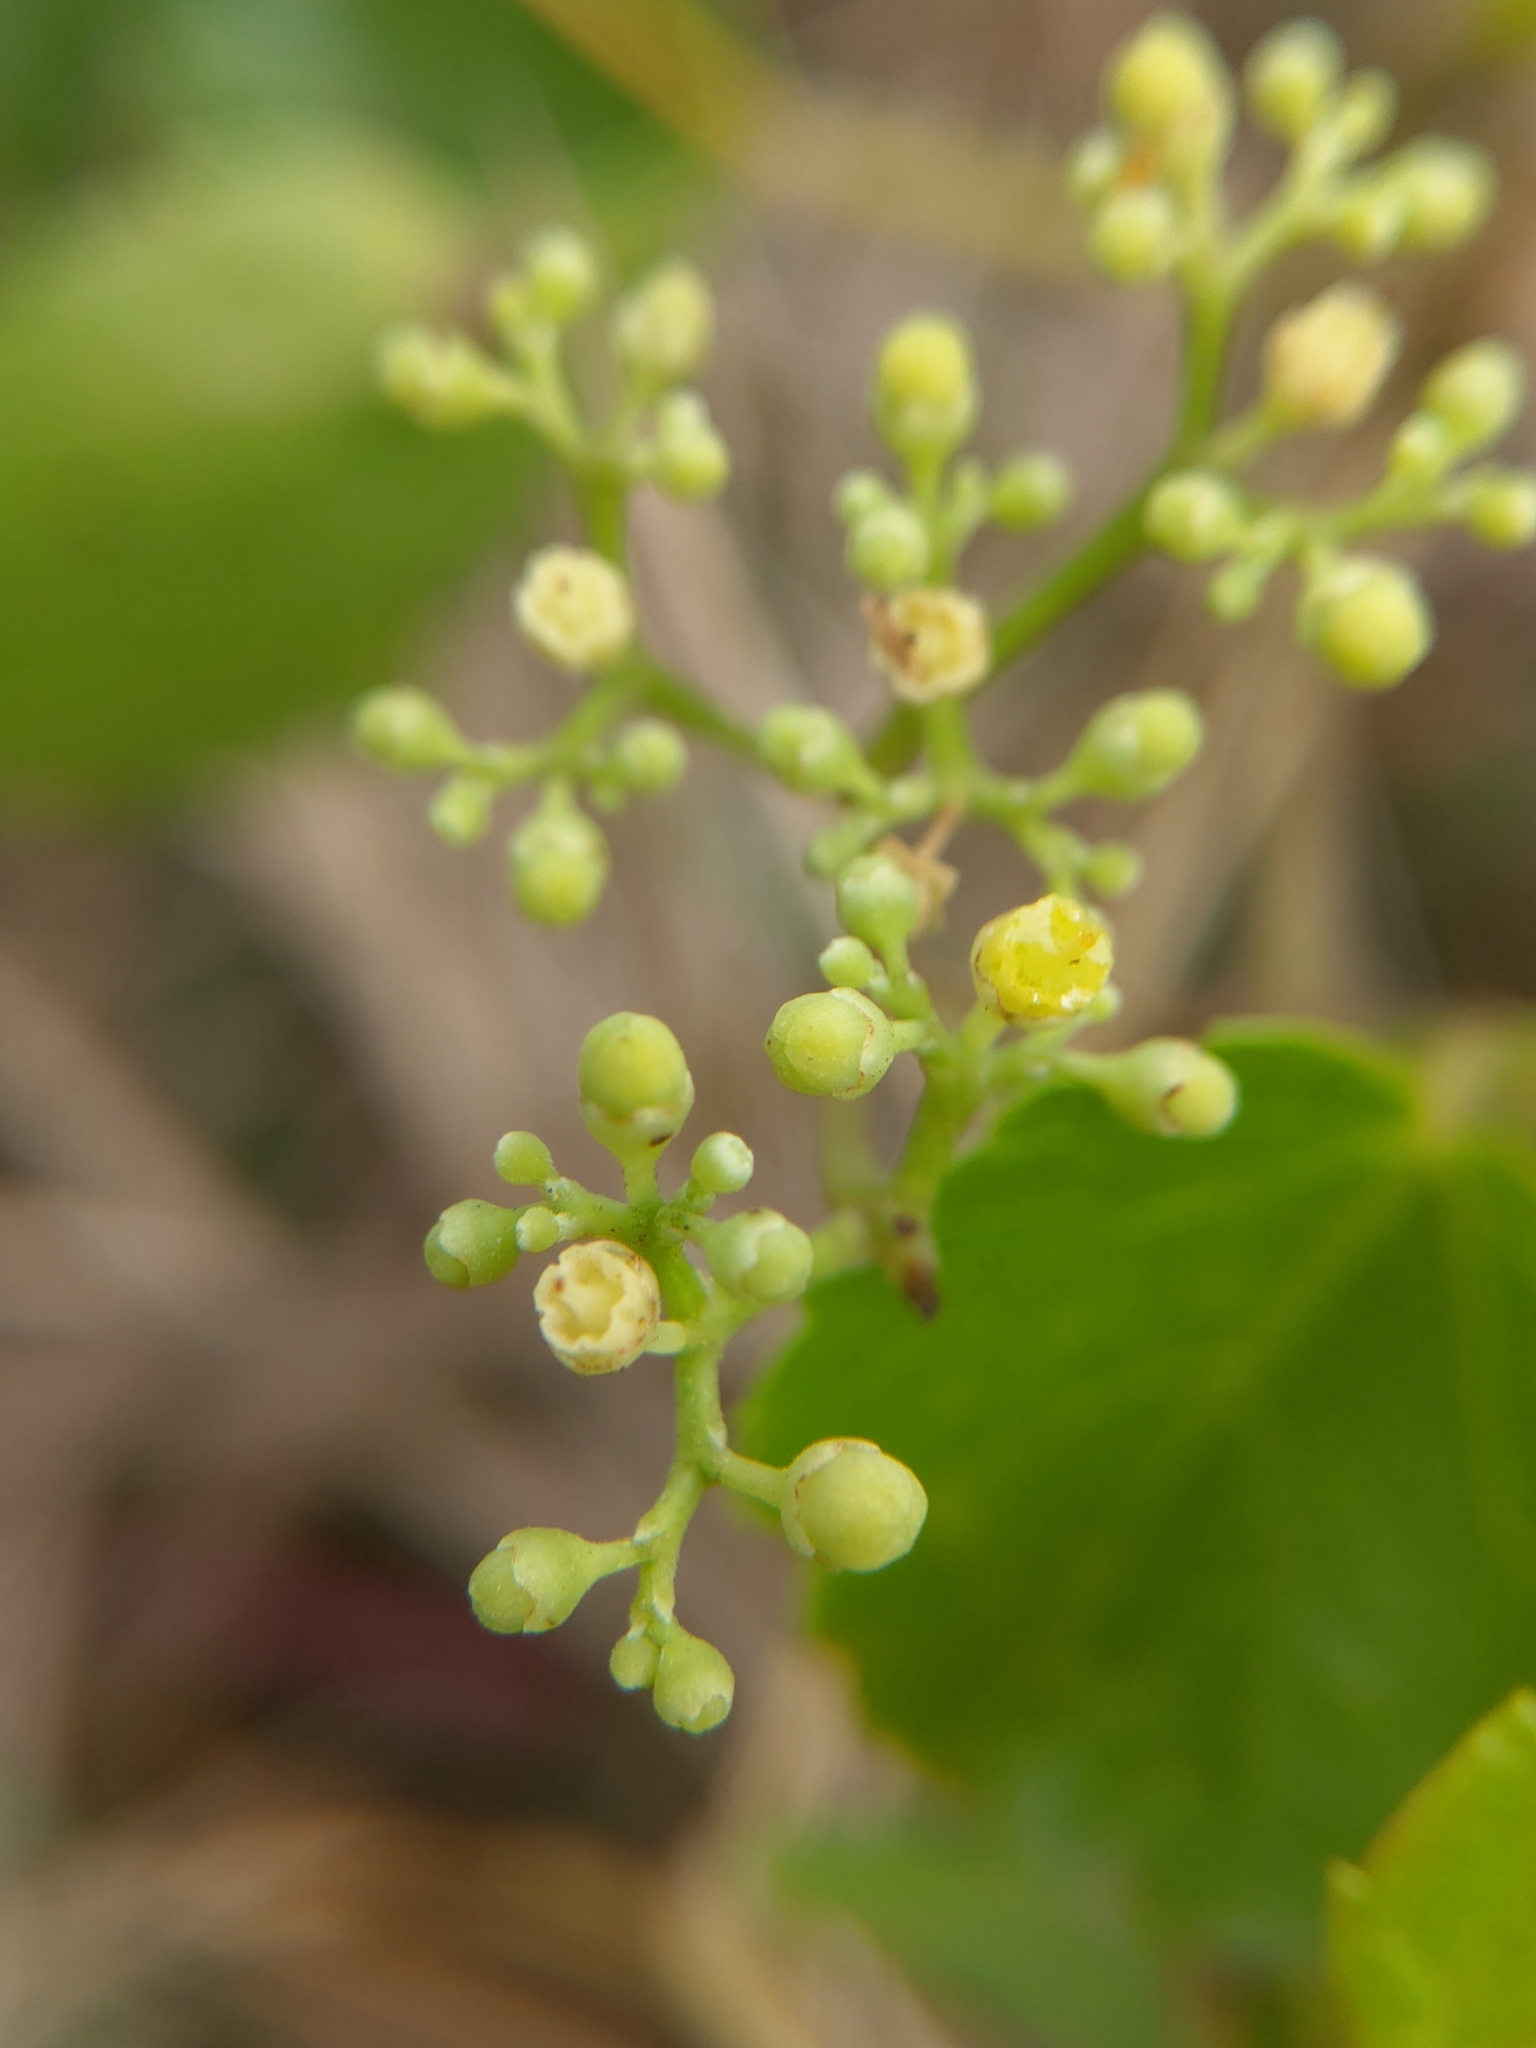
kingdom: Plantae
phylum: Tracheophyta
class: Magnoliopsida
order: Vitales
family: Vitaceae
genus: Ampelopsis
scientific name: Ampelopsis glandulosa
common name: Amur peppervine
